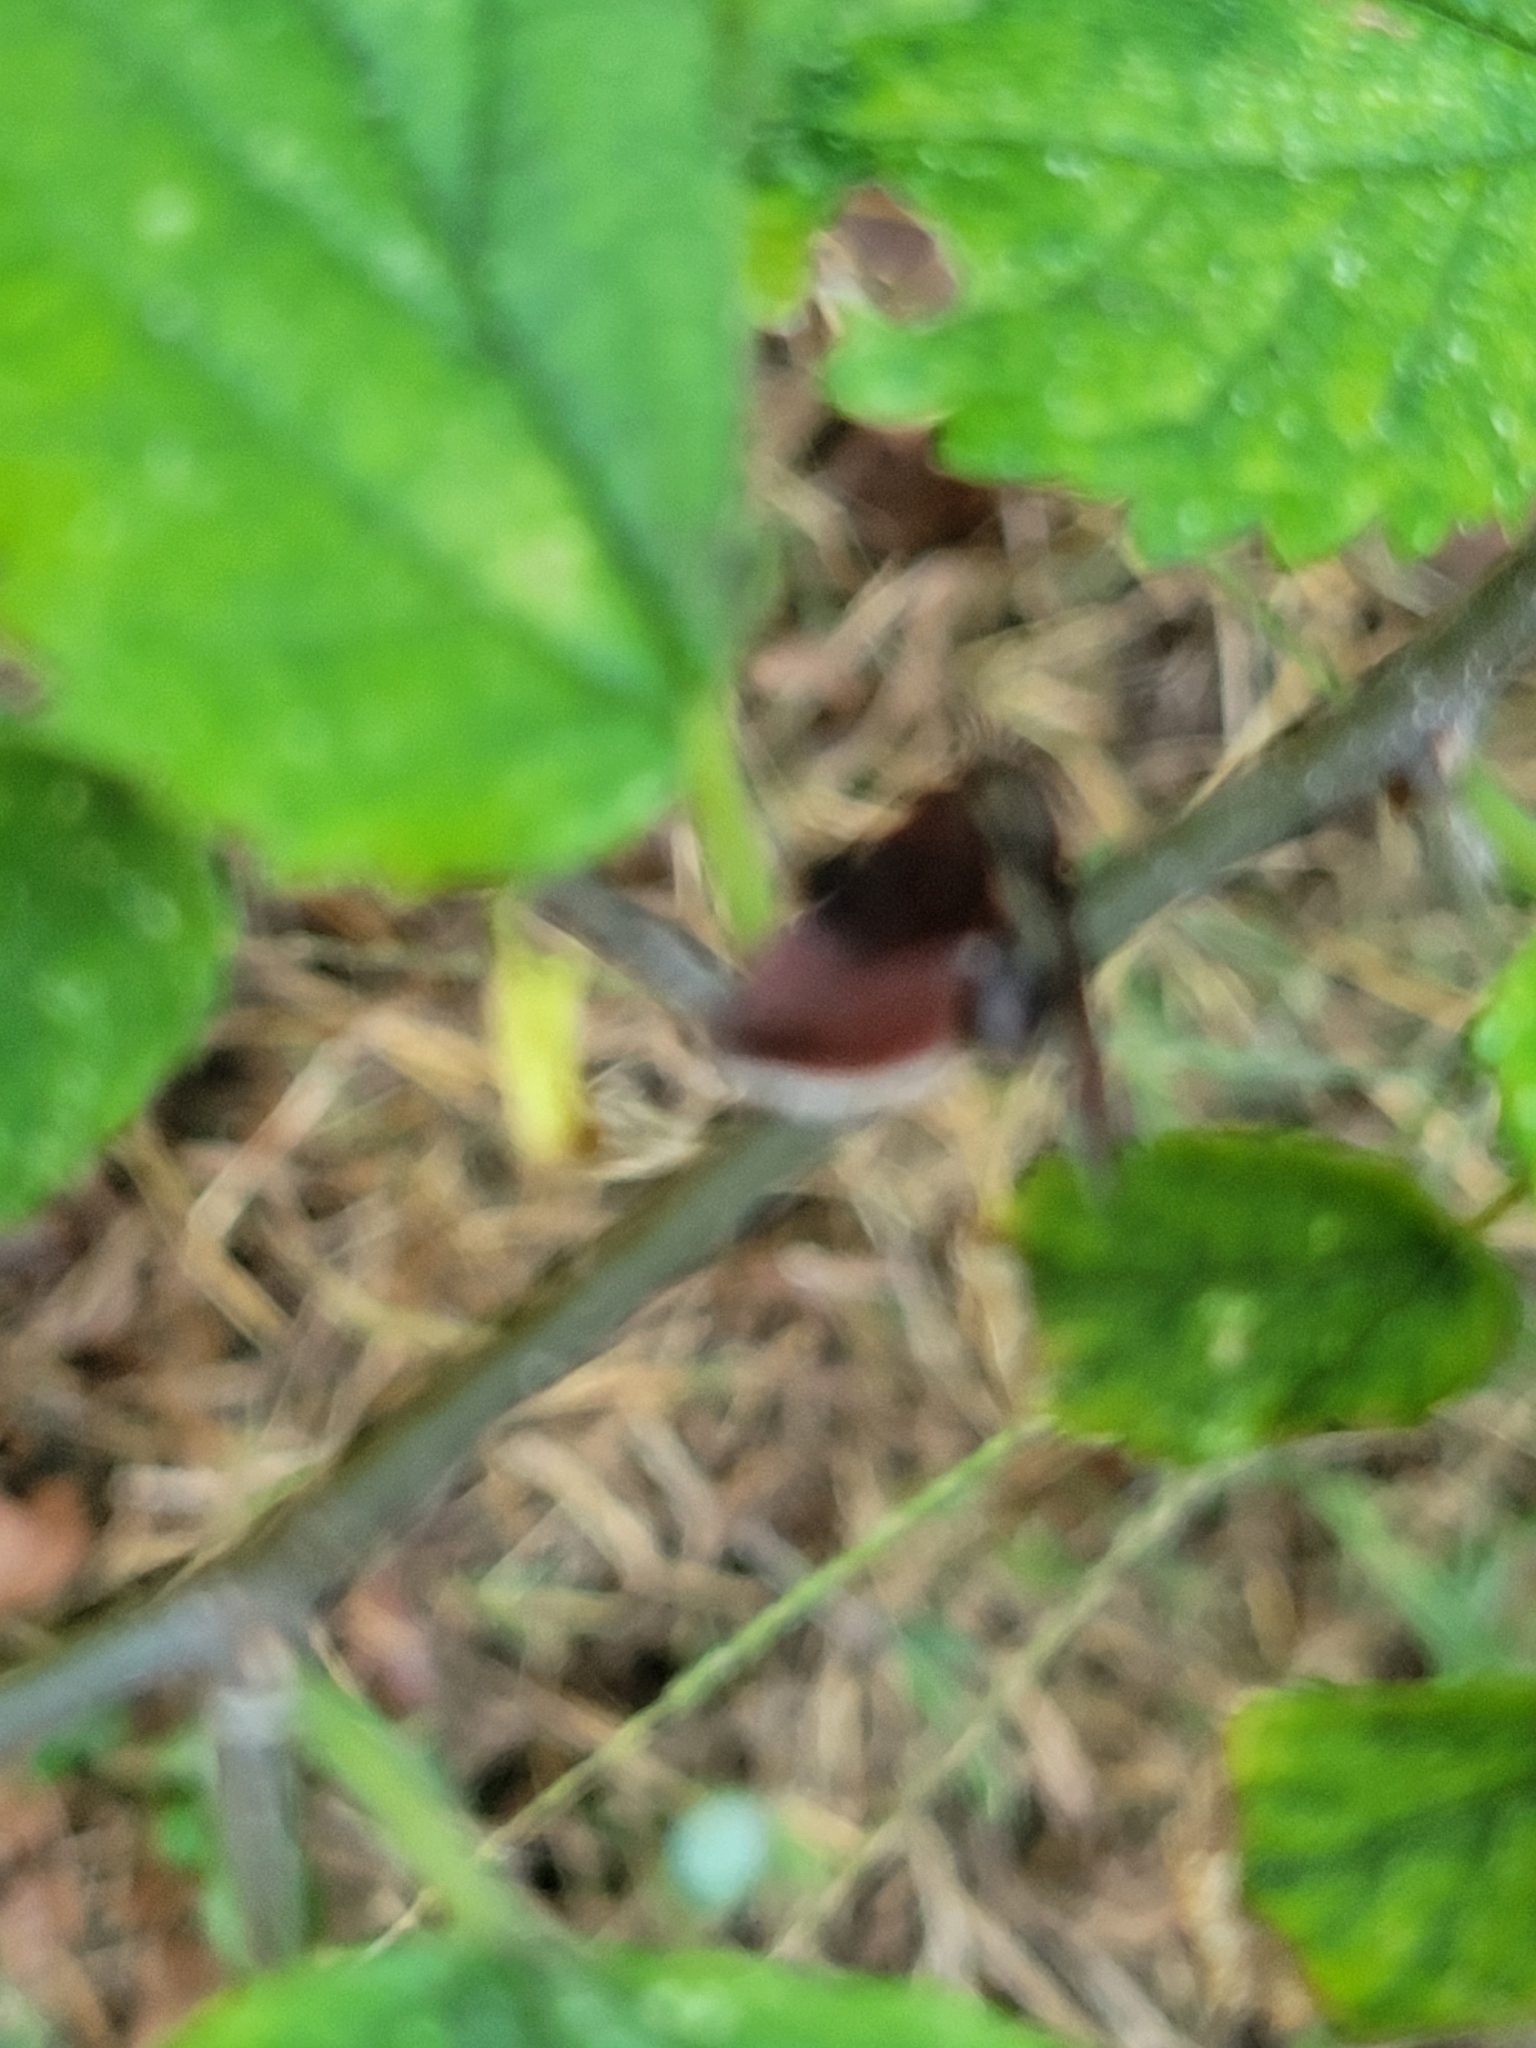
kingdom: Animalia
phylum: Arthropoda
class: Insecta
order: Lepidoptera
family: Noctuidae
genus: Galgula
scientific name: Galgula partita
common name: Wedgeling
